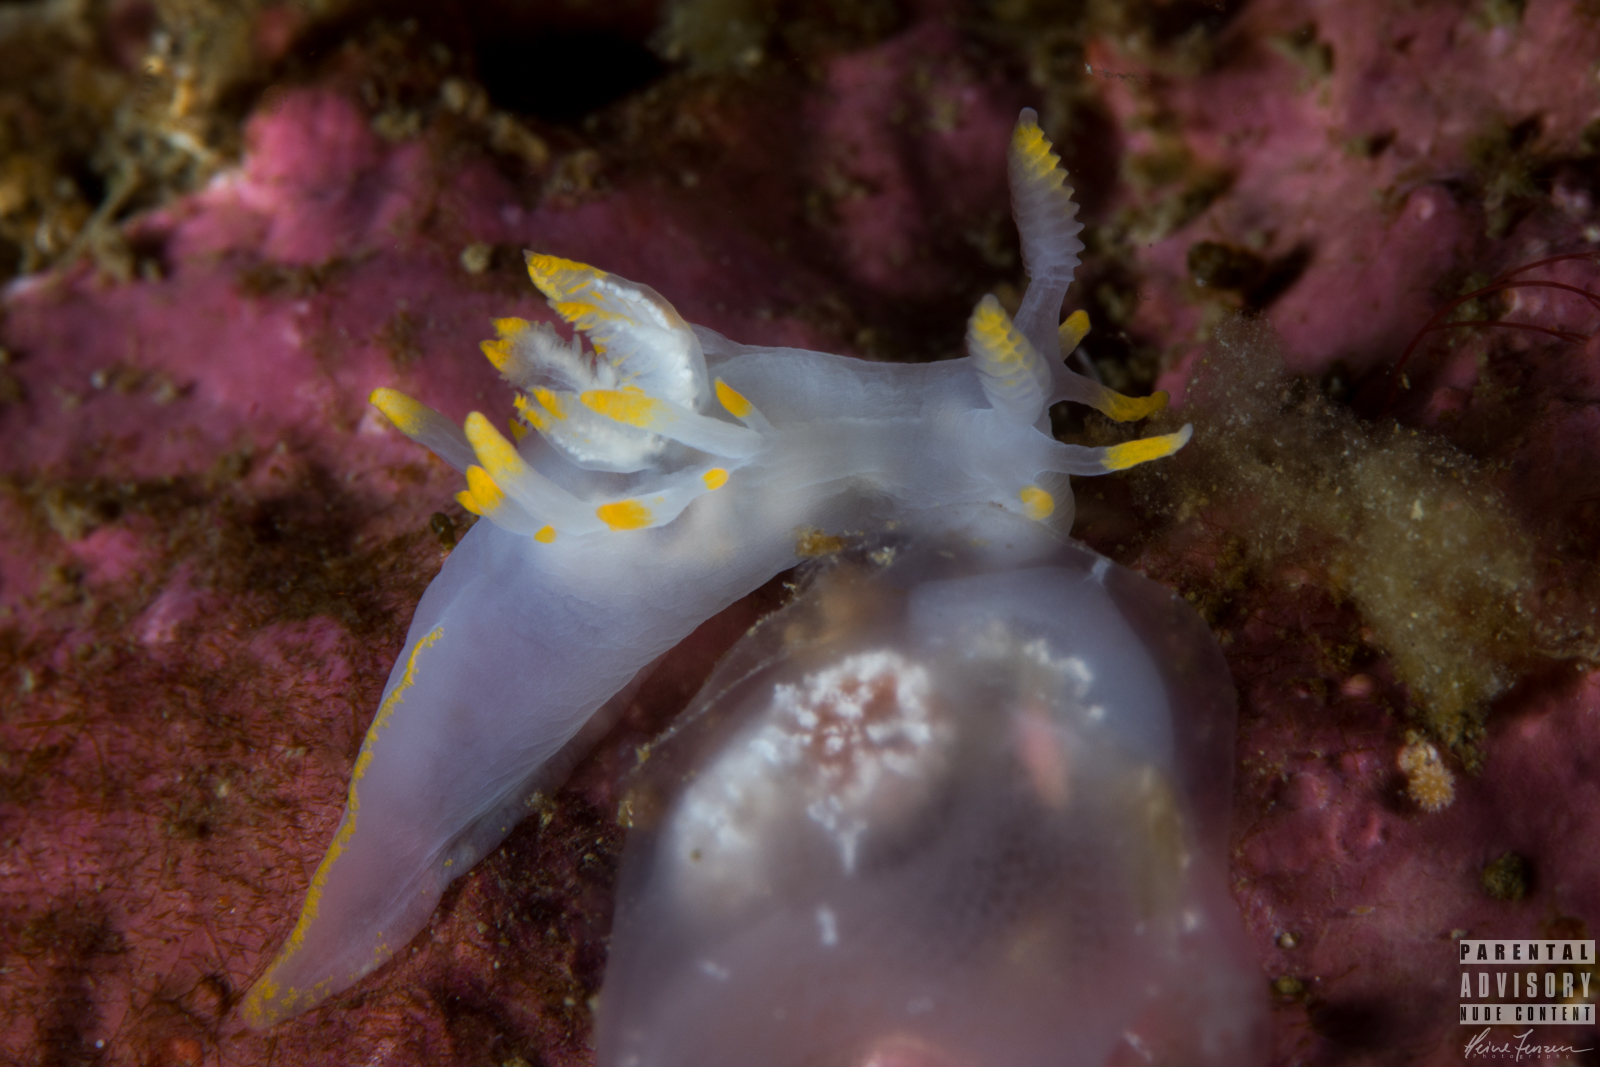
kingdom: Animalia
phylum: Mollusca
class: Gastropoda
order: Nudibranchia
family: Goniodorididae
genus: Ancula
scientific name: Ancula gibbosa
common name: Atlantic ancula
